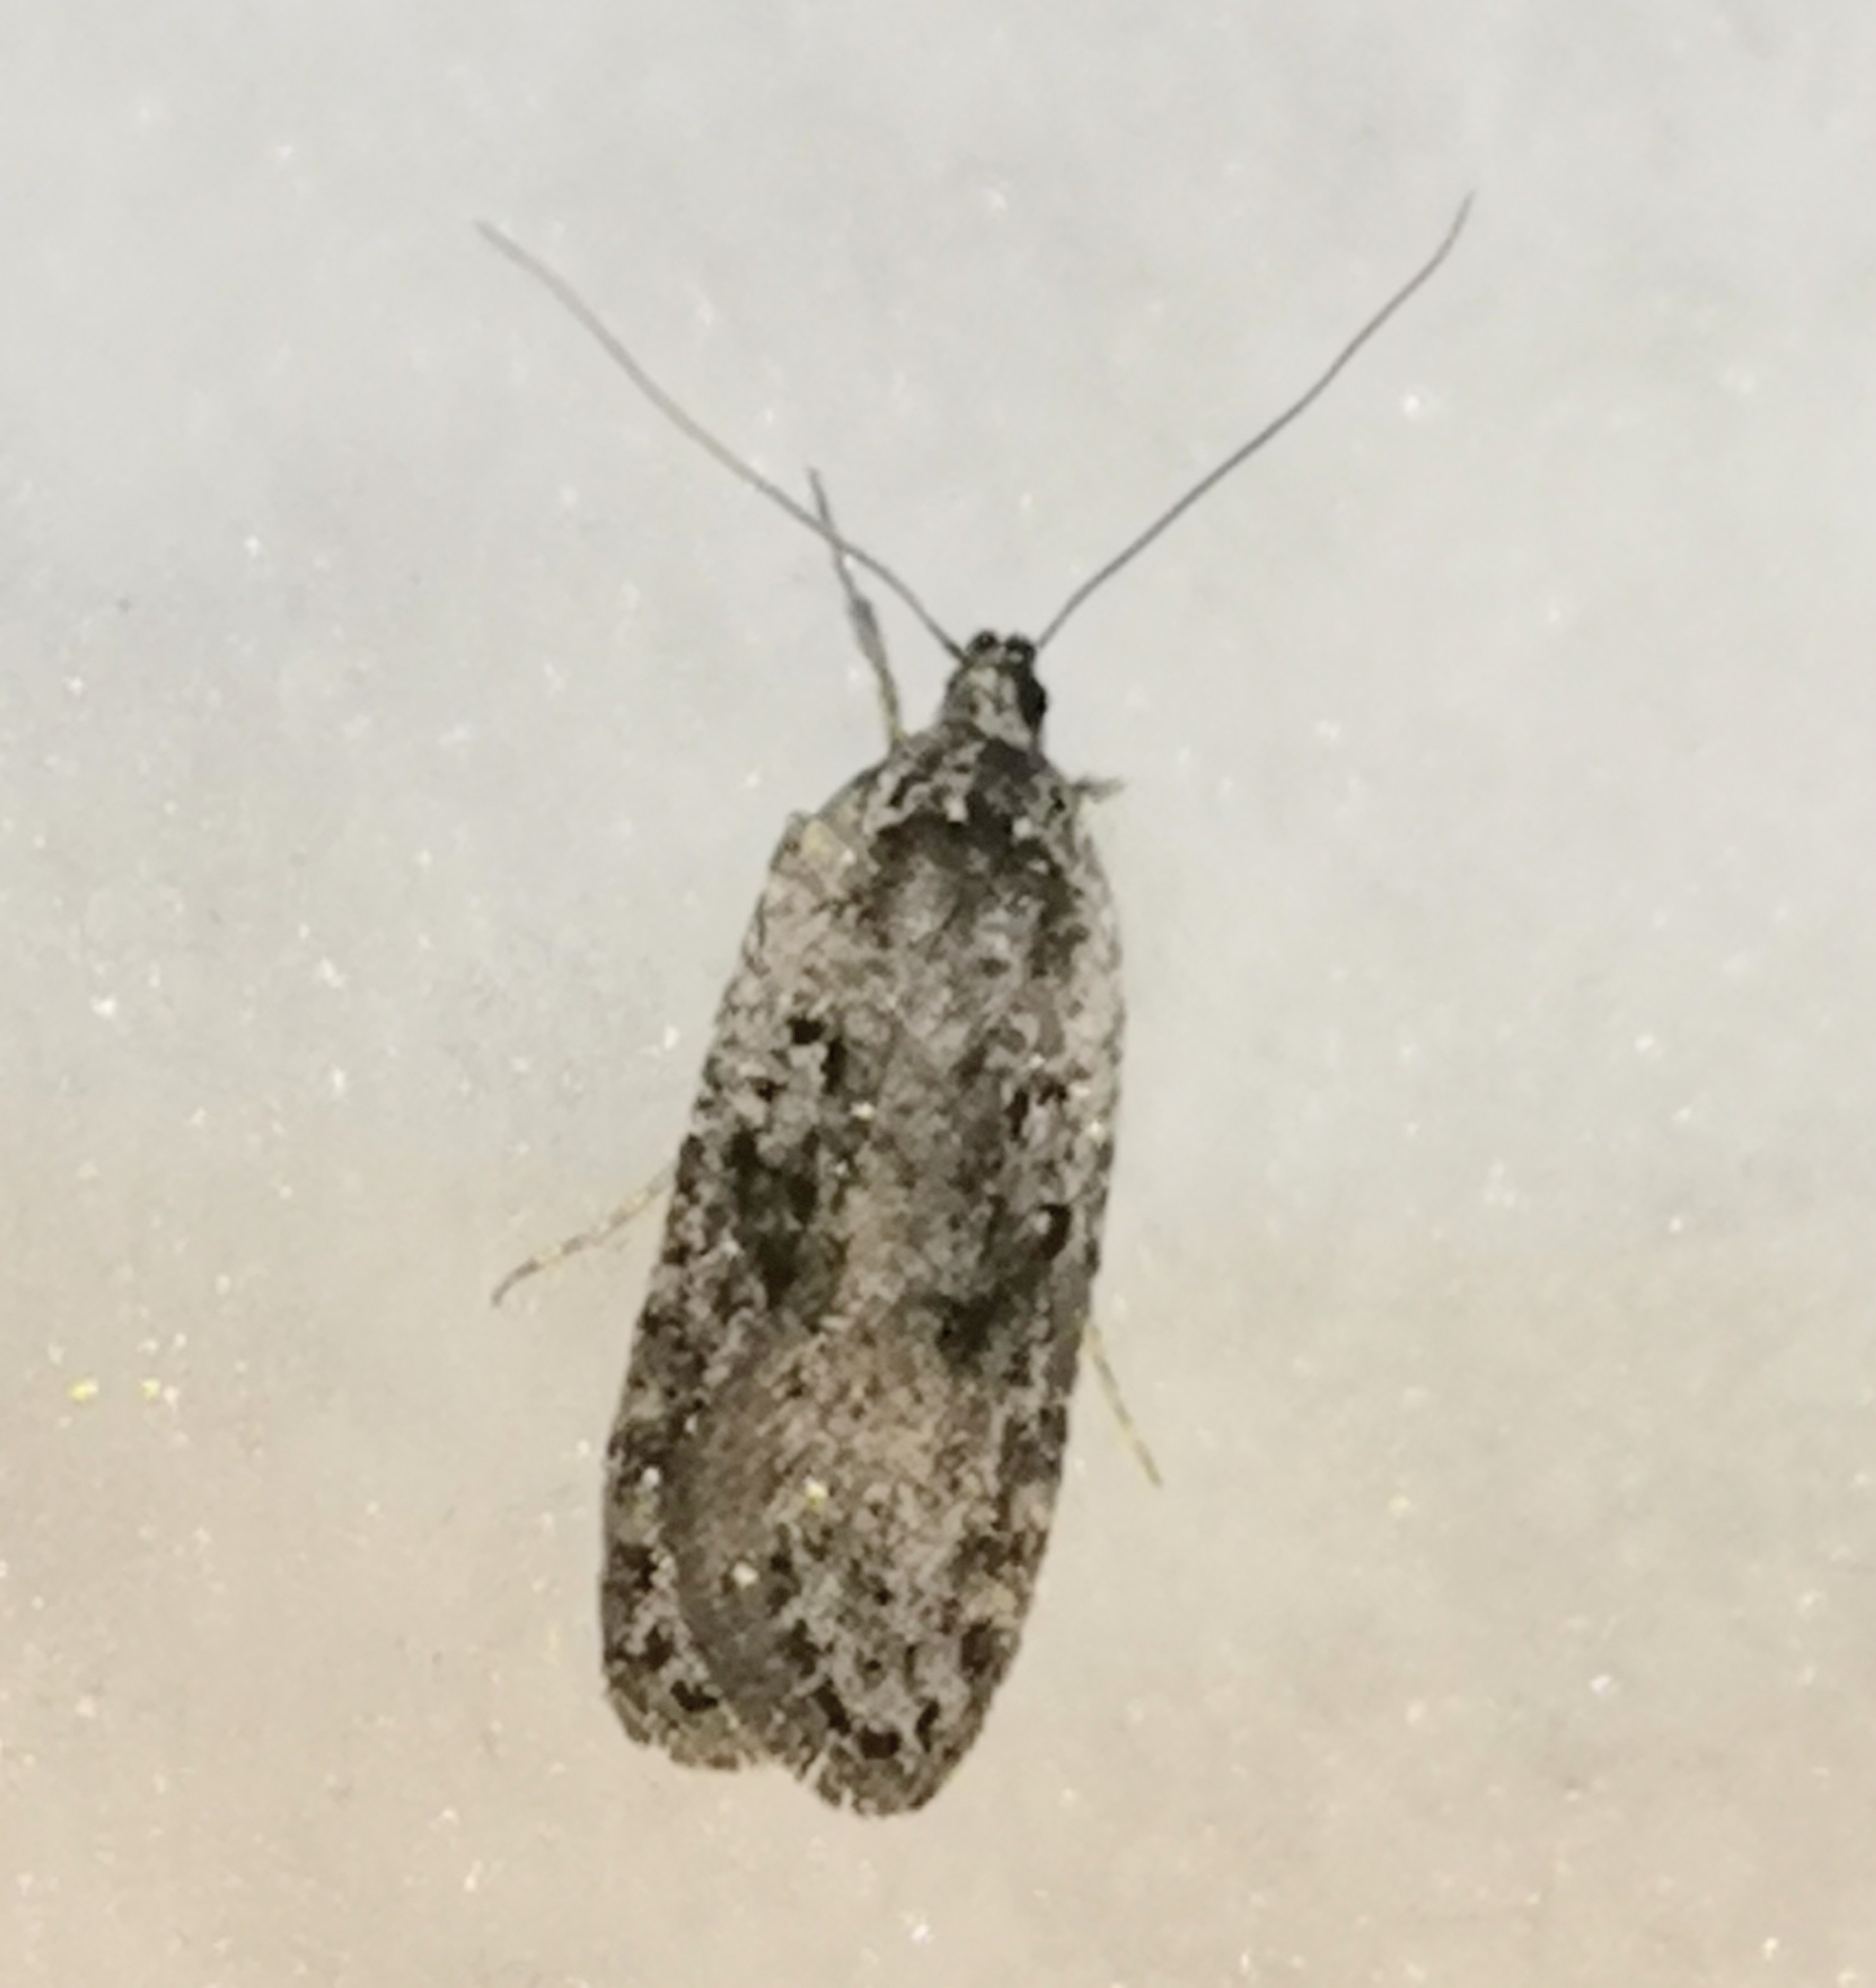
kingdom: Animalia
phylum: Arthropoda
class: Insecta
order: Lepidoptera
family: Depressariidae
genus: Exaeretia
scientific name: Exaeretia ciniflonella
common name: Scotch flat-body
